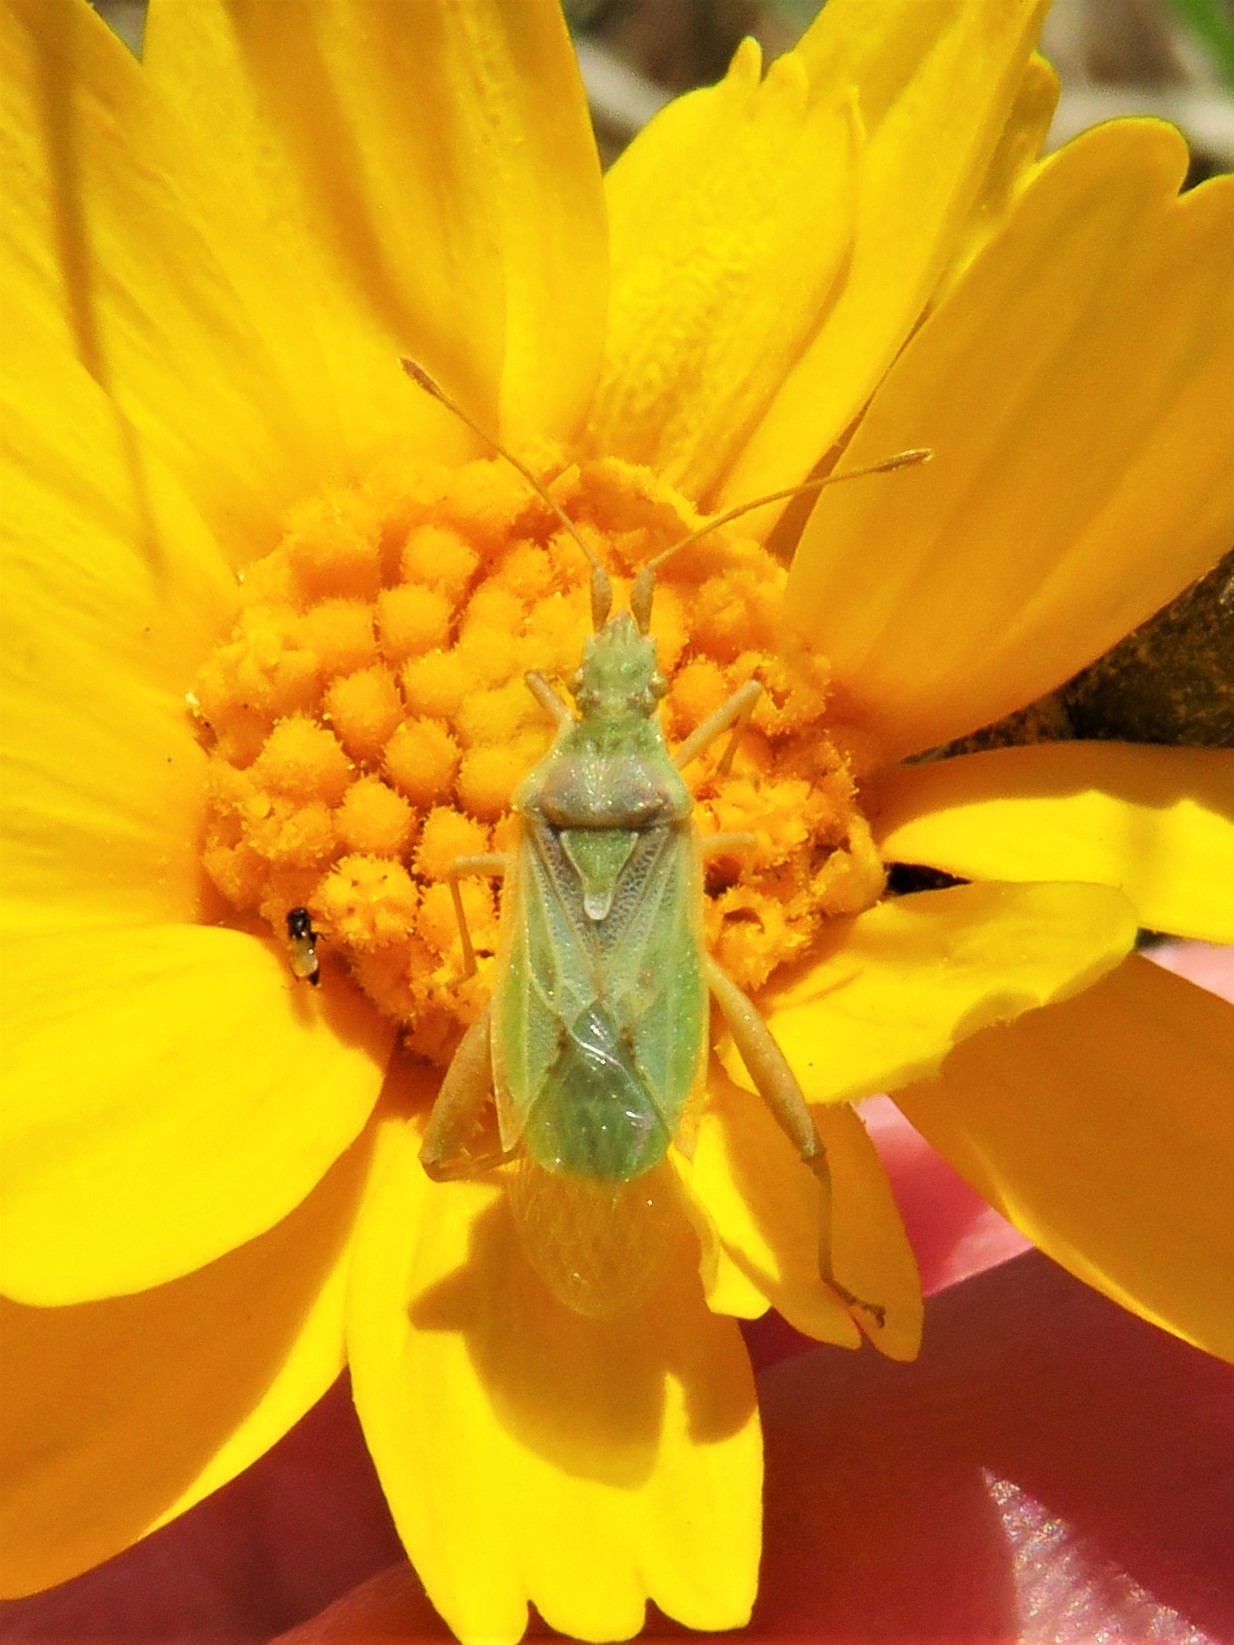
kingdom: Animalia
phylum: Arthropoda
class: Insecta
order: Hemiptera
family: Rhopalidae
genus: Harmostes
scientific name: Harmostes reflexulus
